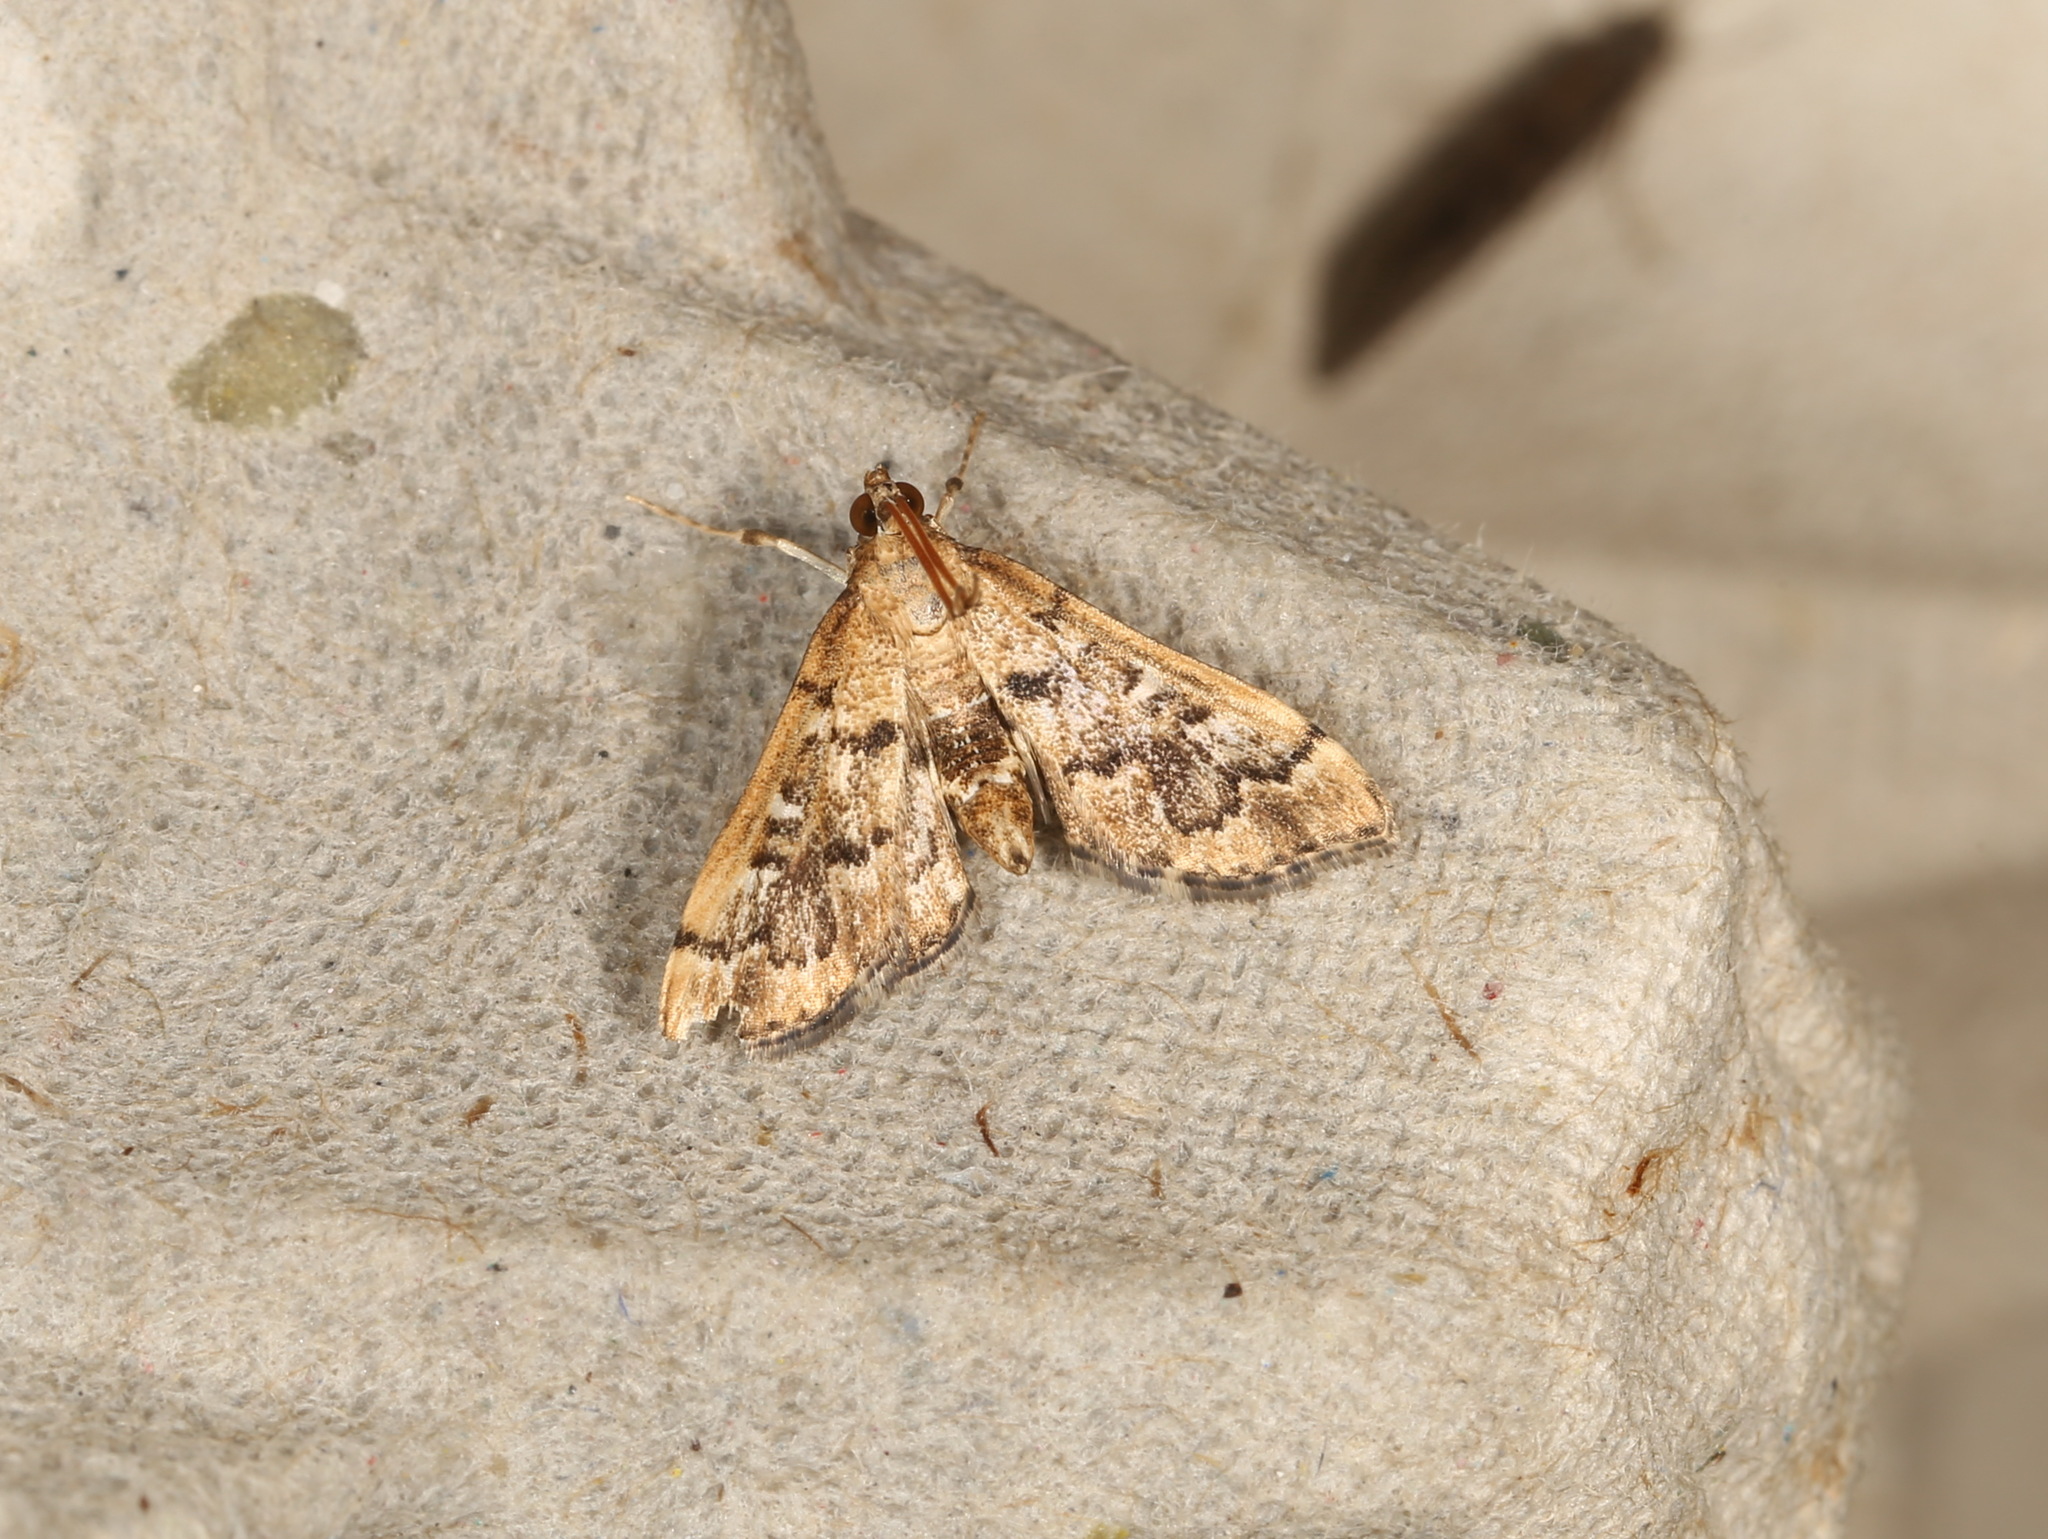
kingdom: Animalia
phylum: Arthropoda
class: Insecta
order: Lepidoptera
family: Crambidae
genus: Nacoleia
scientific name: Nacoleia rhoeoalis
